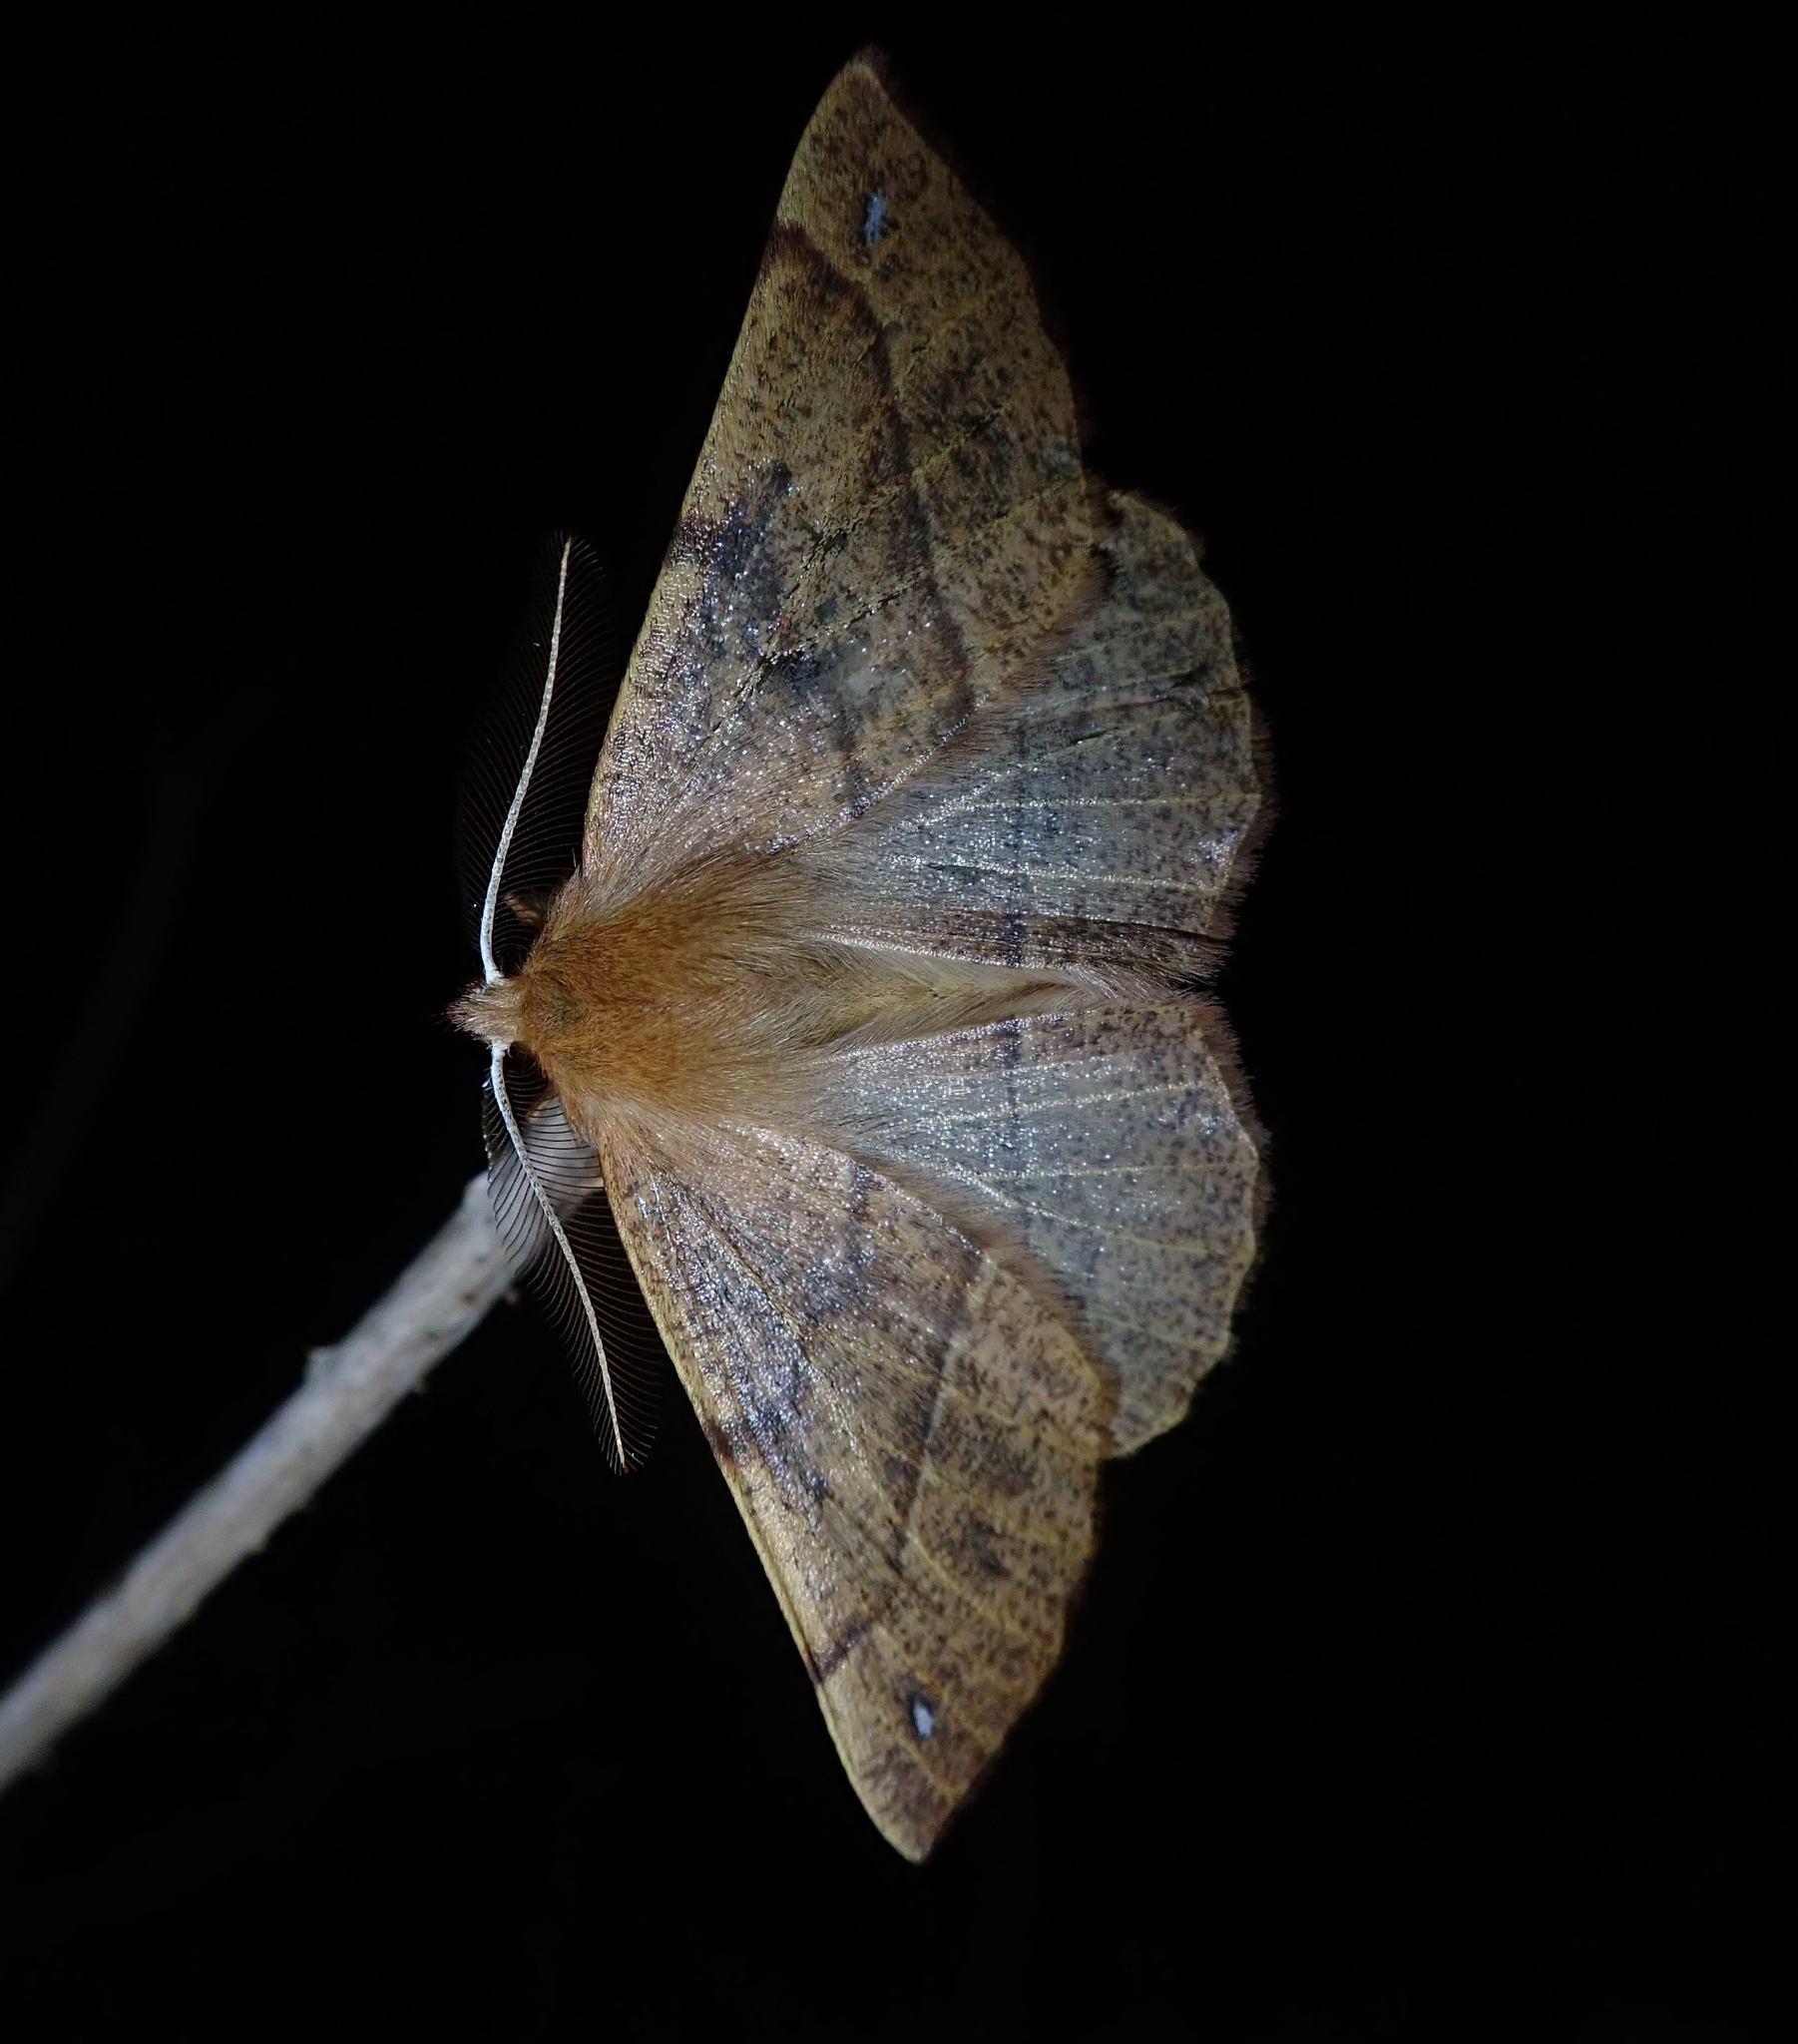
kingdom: Animalia
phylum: Arthropoda
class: Insecta
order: Lepidoptera
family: Geometridae
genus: Colotois
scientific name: Colotois pennaria
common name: Feathered thorn
